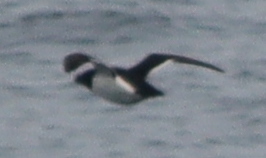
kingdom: Animalia
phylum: Chordata
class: Aves
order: Charadriiformes
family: Alcidae
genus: Alca
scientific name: Alca torda
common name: Razorbill
